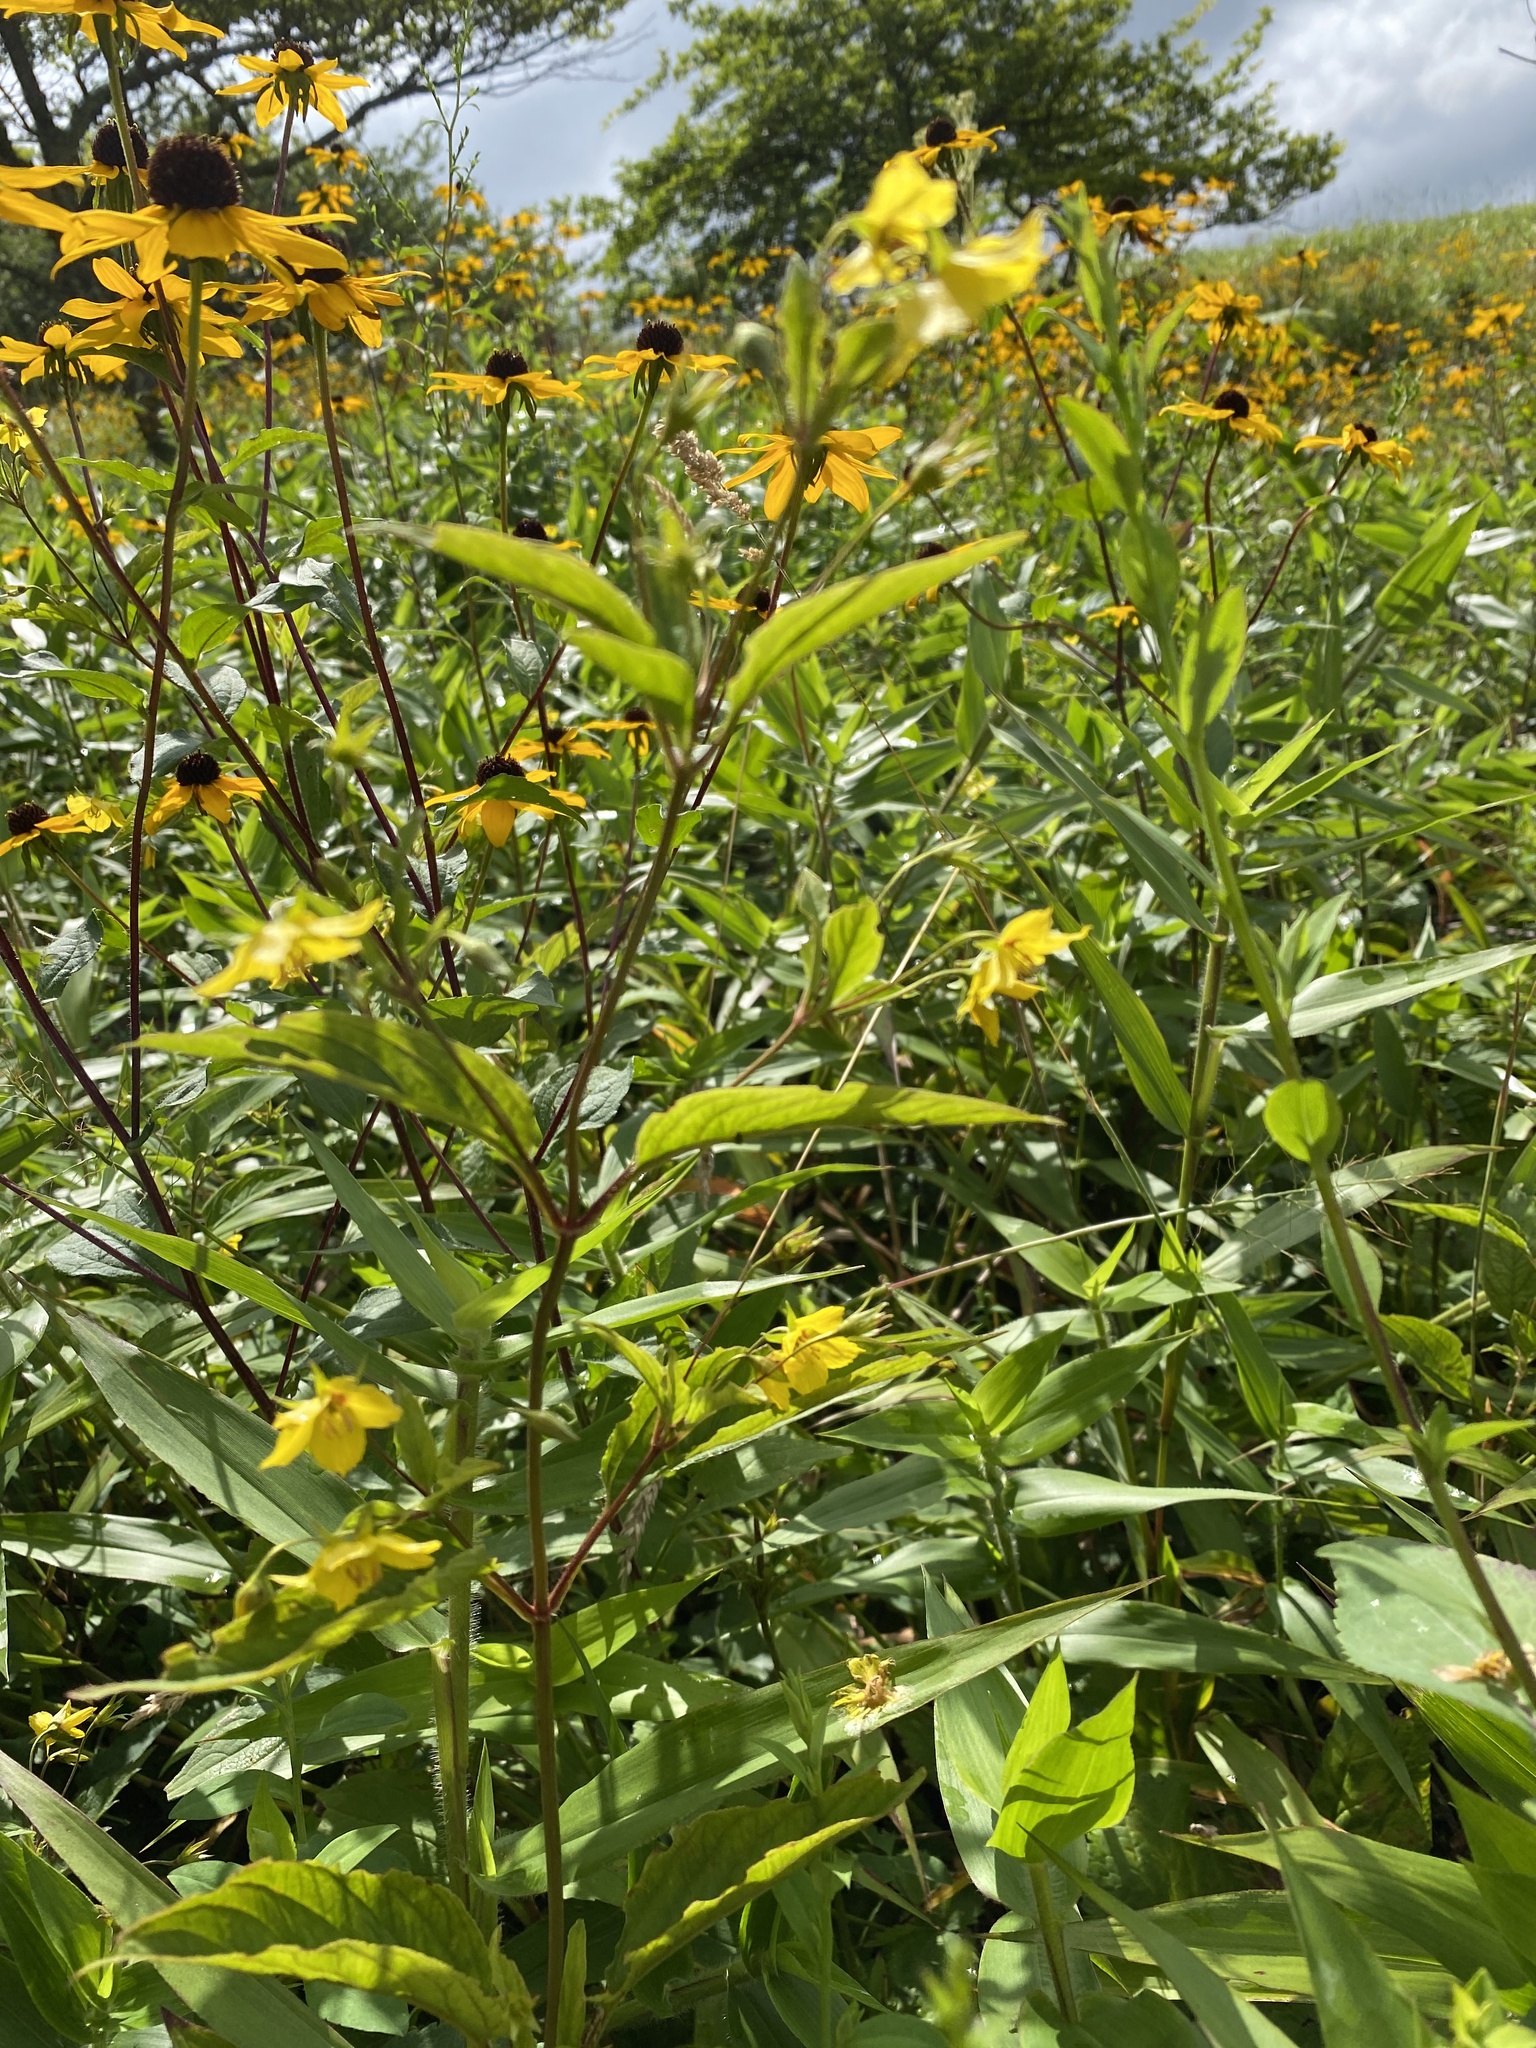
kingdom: Plantae
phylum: Tracheophyta
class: Magnoliopsida
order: Ericales
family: Primulaceae
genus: Lysimachia
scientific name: Lysimachia ciliata
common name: Fringed loosestrife
